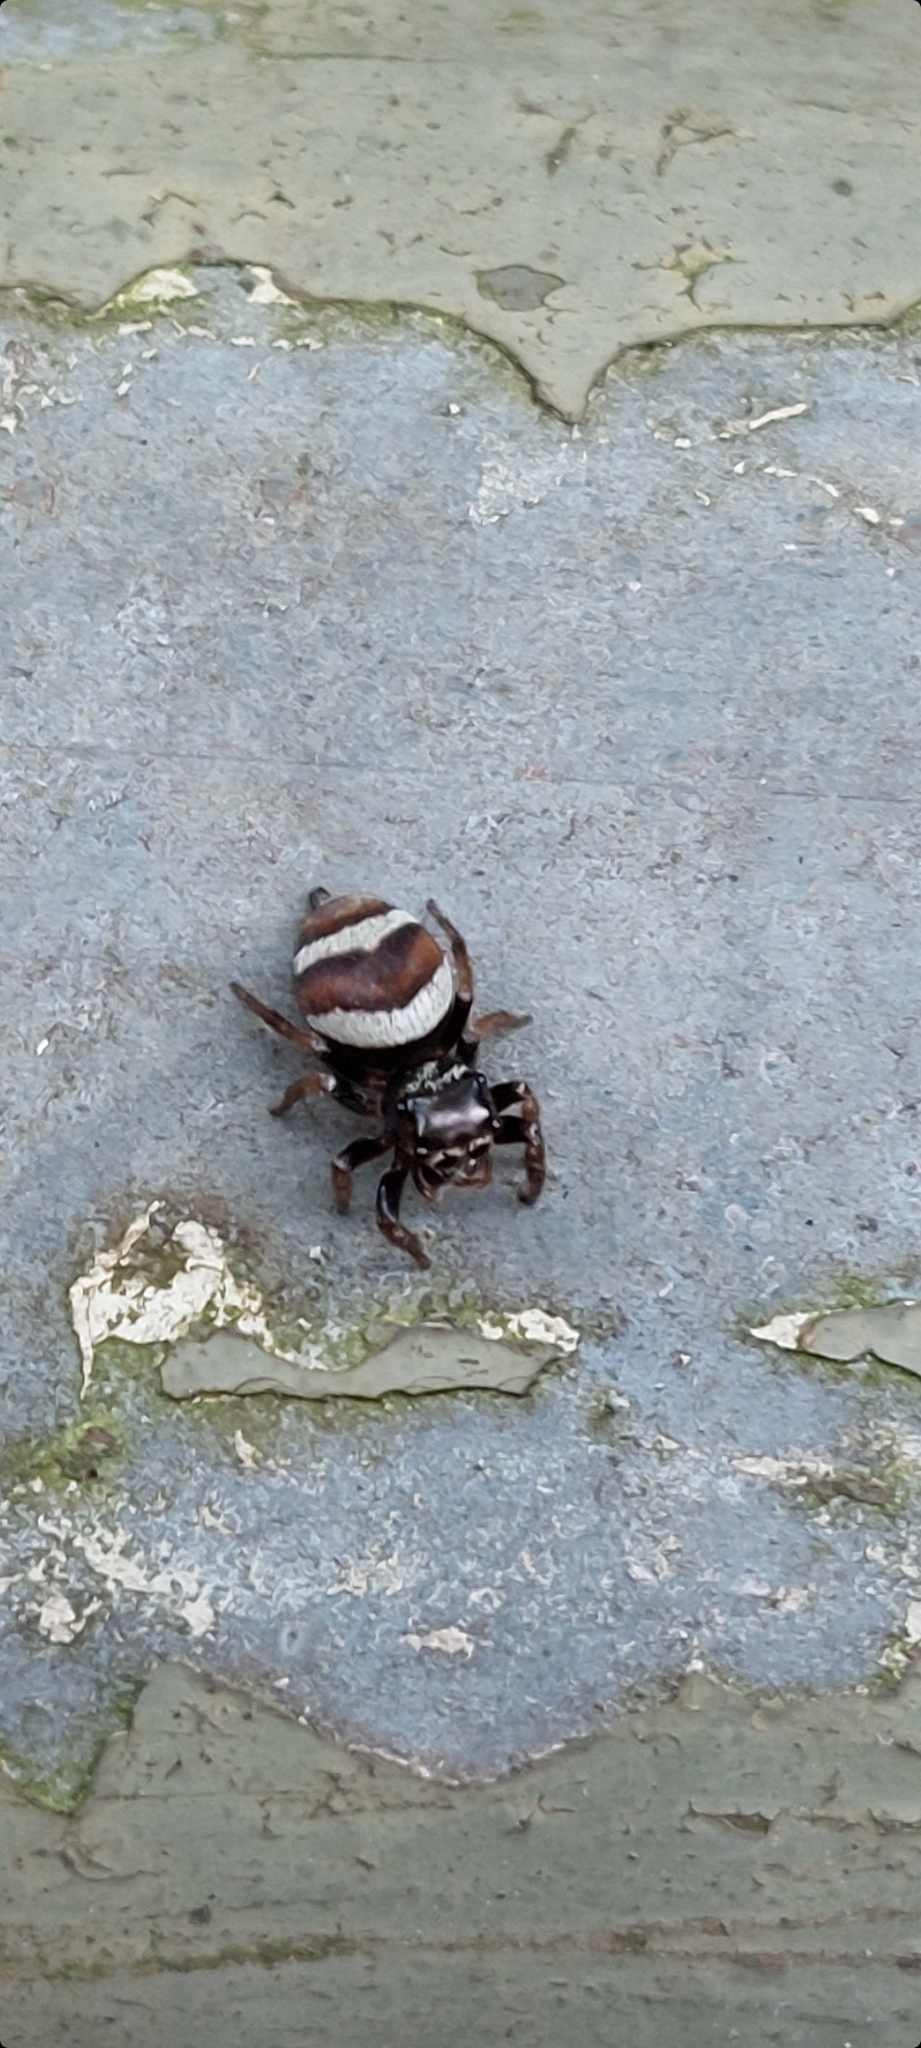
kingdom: Animalia
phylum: Arthropoda
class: Arachnida
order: Araneae
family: Salticidae
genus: Ptocasius
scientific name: Ptocasius strupifer
